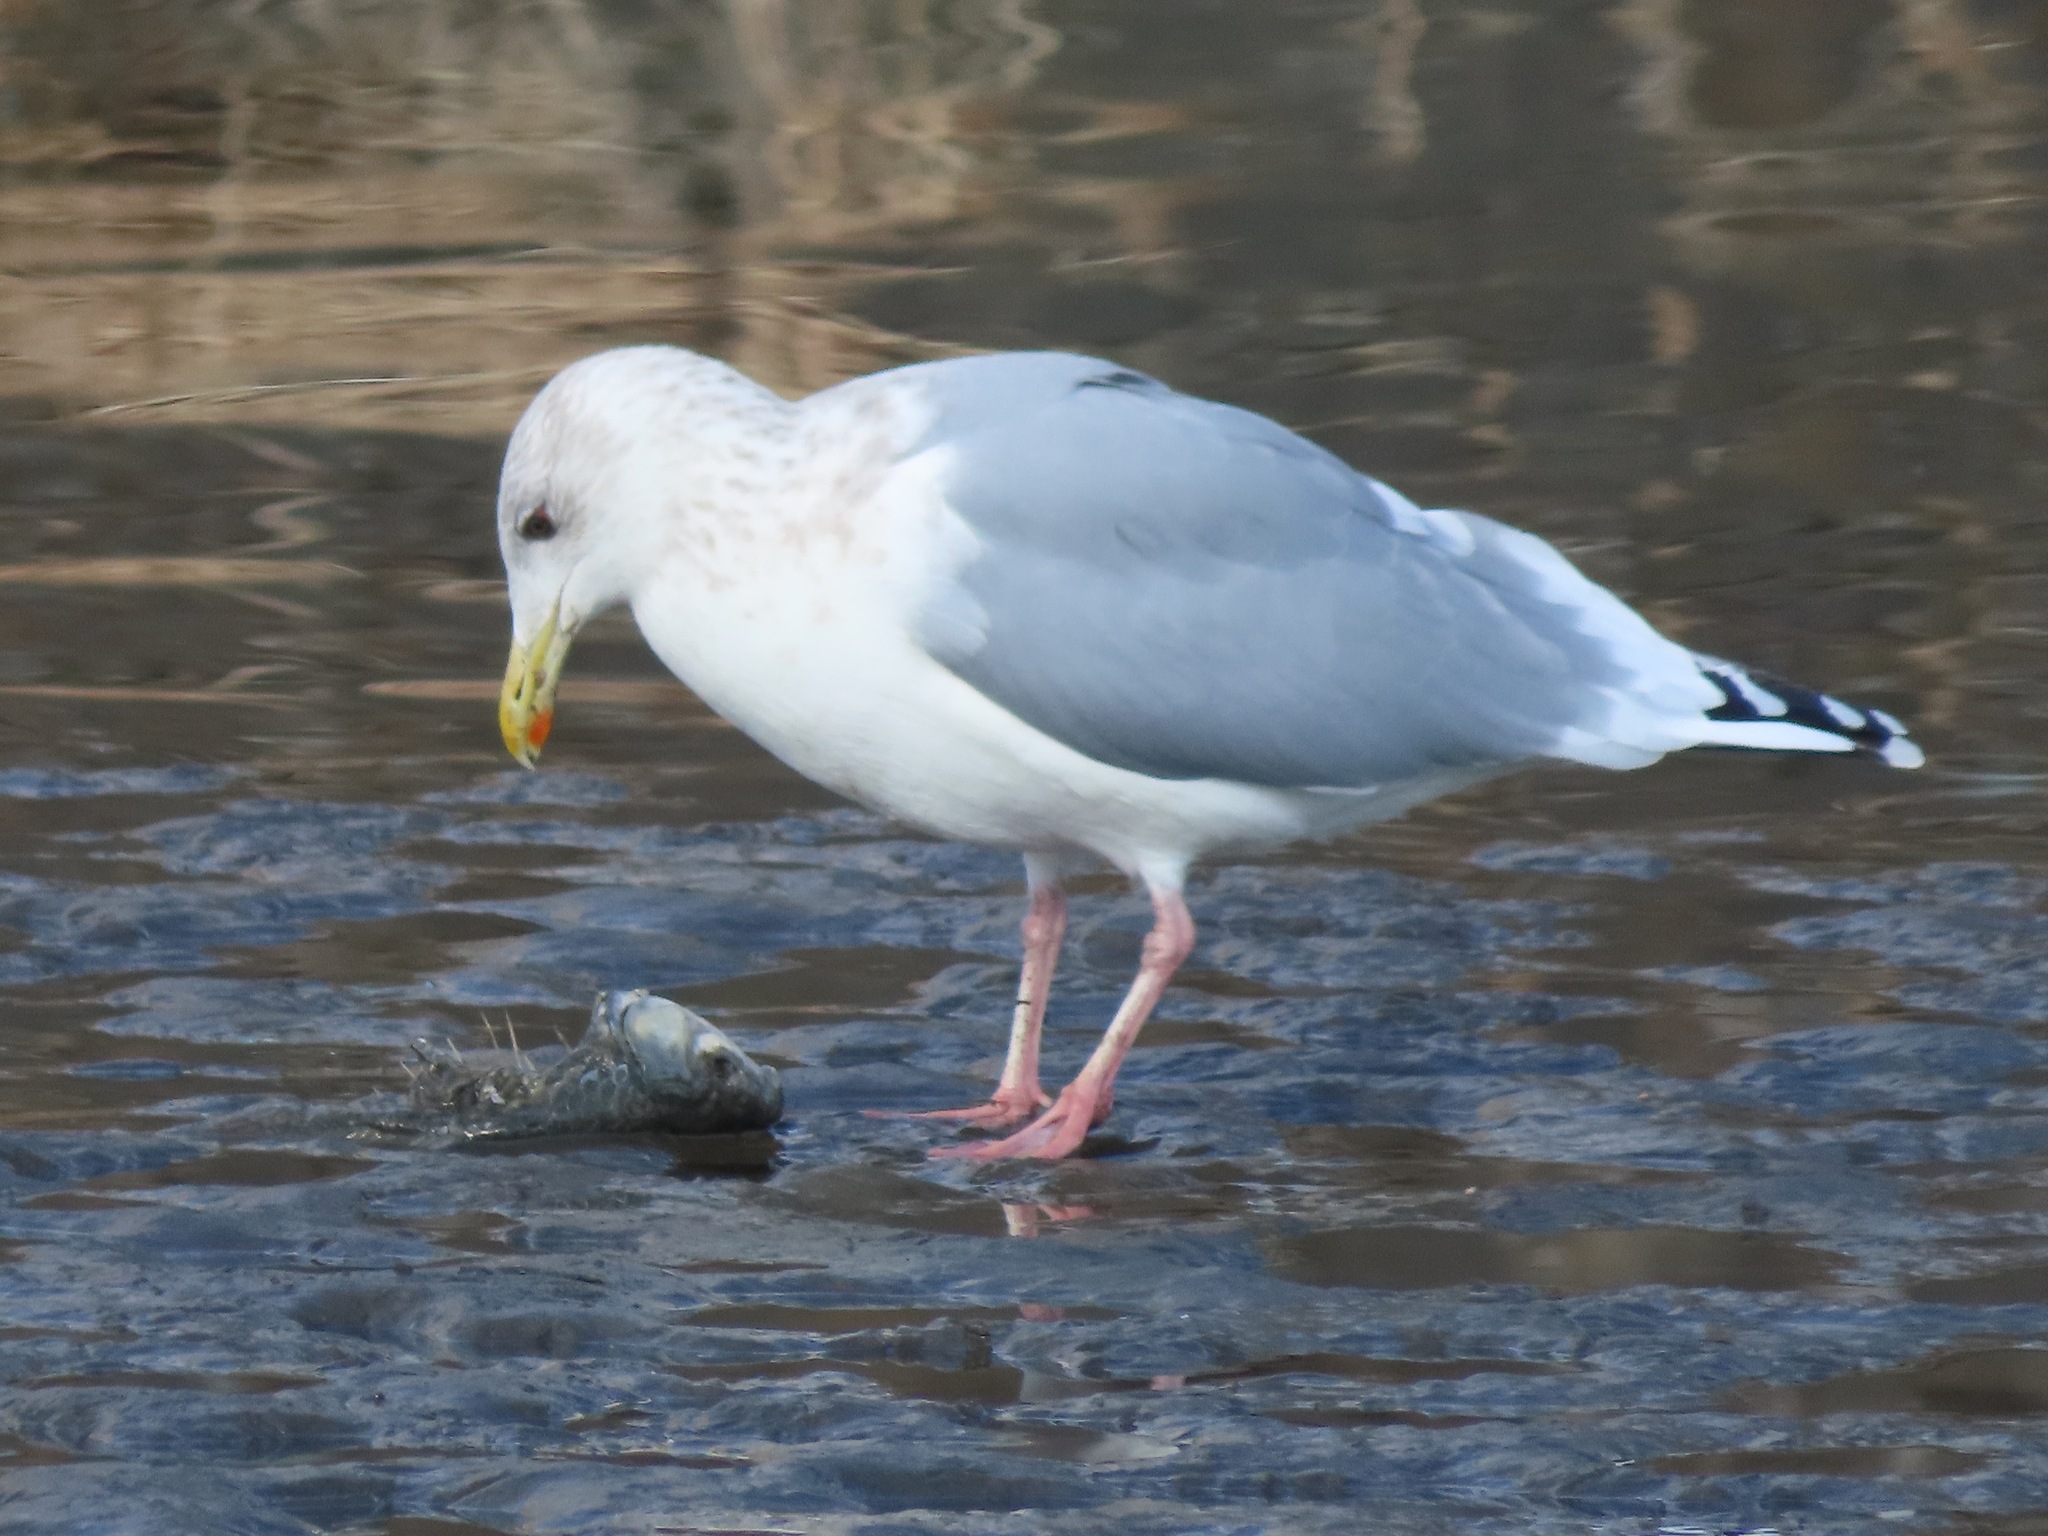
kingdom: Animalia
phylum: Chordata
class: Aves
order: Charadriiformes
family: Laridae
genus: Larus
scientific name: Larus vegae
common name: Vega gull
